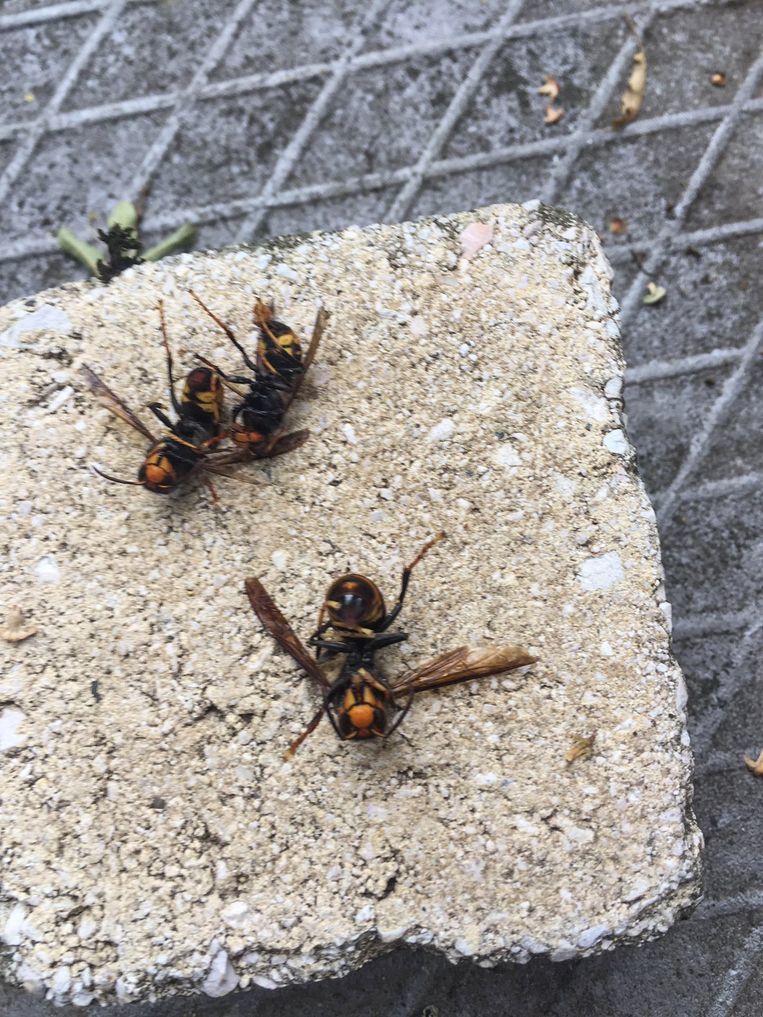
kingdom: Animalia
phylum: Arthropoda
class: Insecta
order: Hymenoptera
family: Vespidae
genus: Vespa
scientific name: Vespa velutina
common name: Asian hornet
